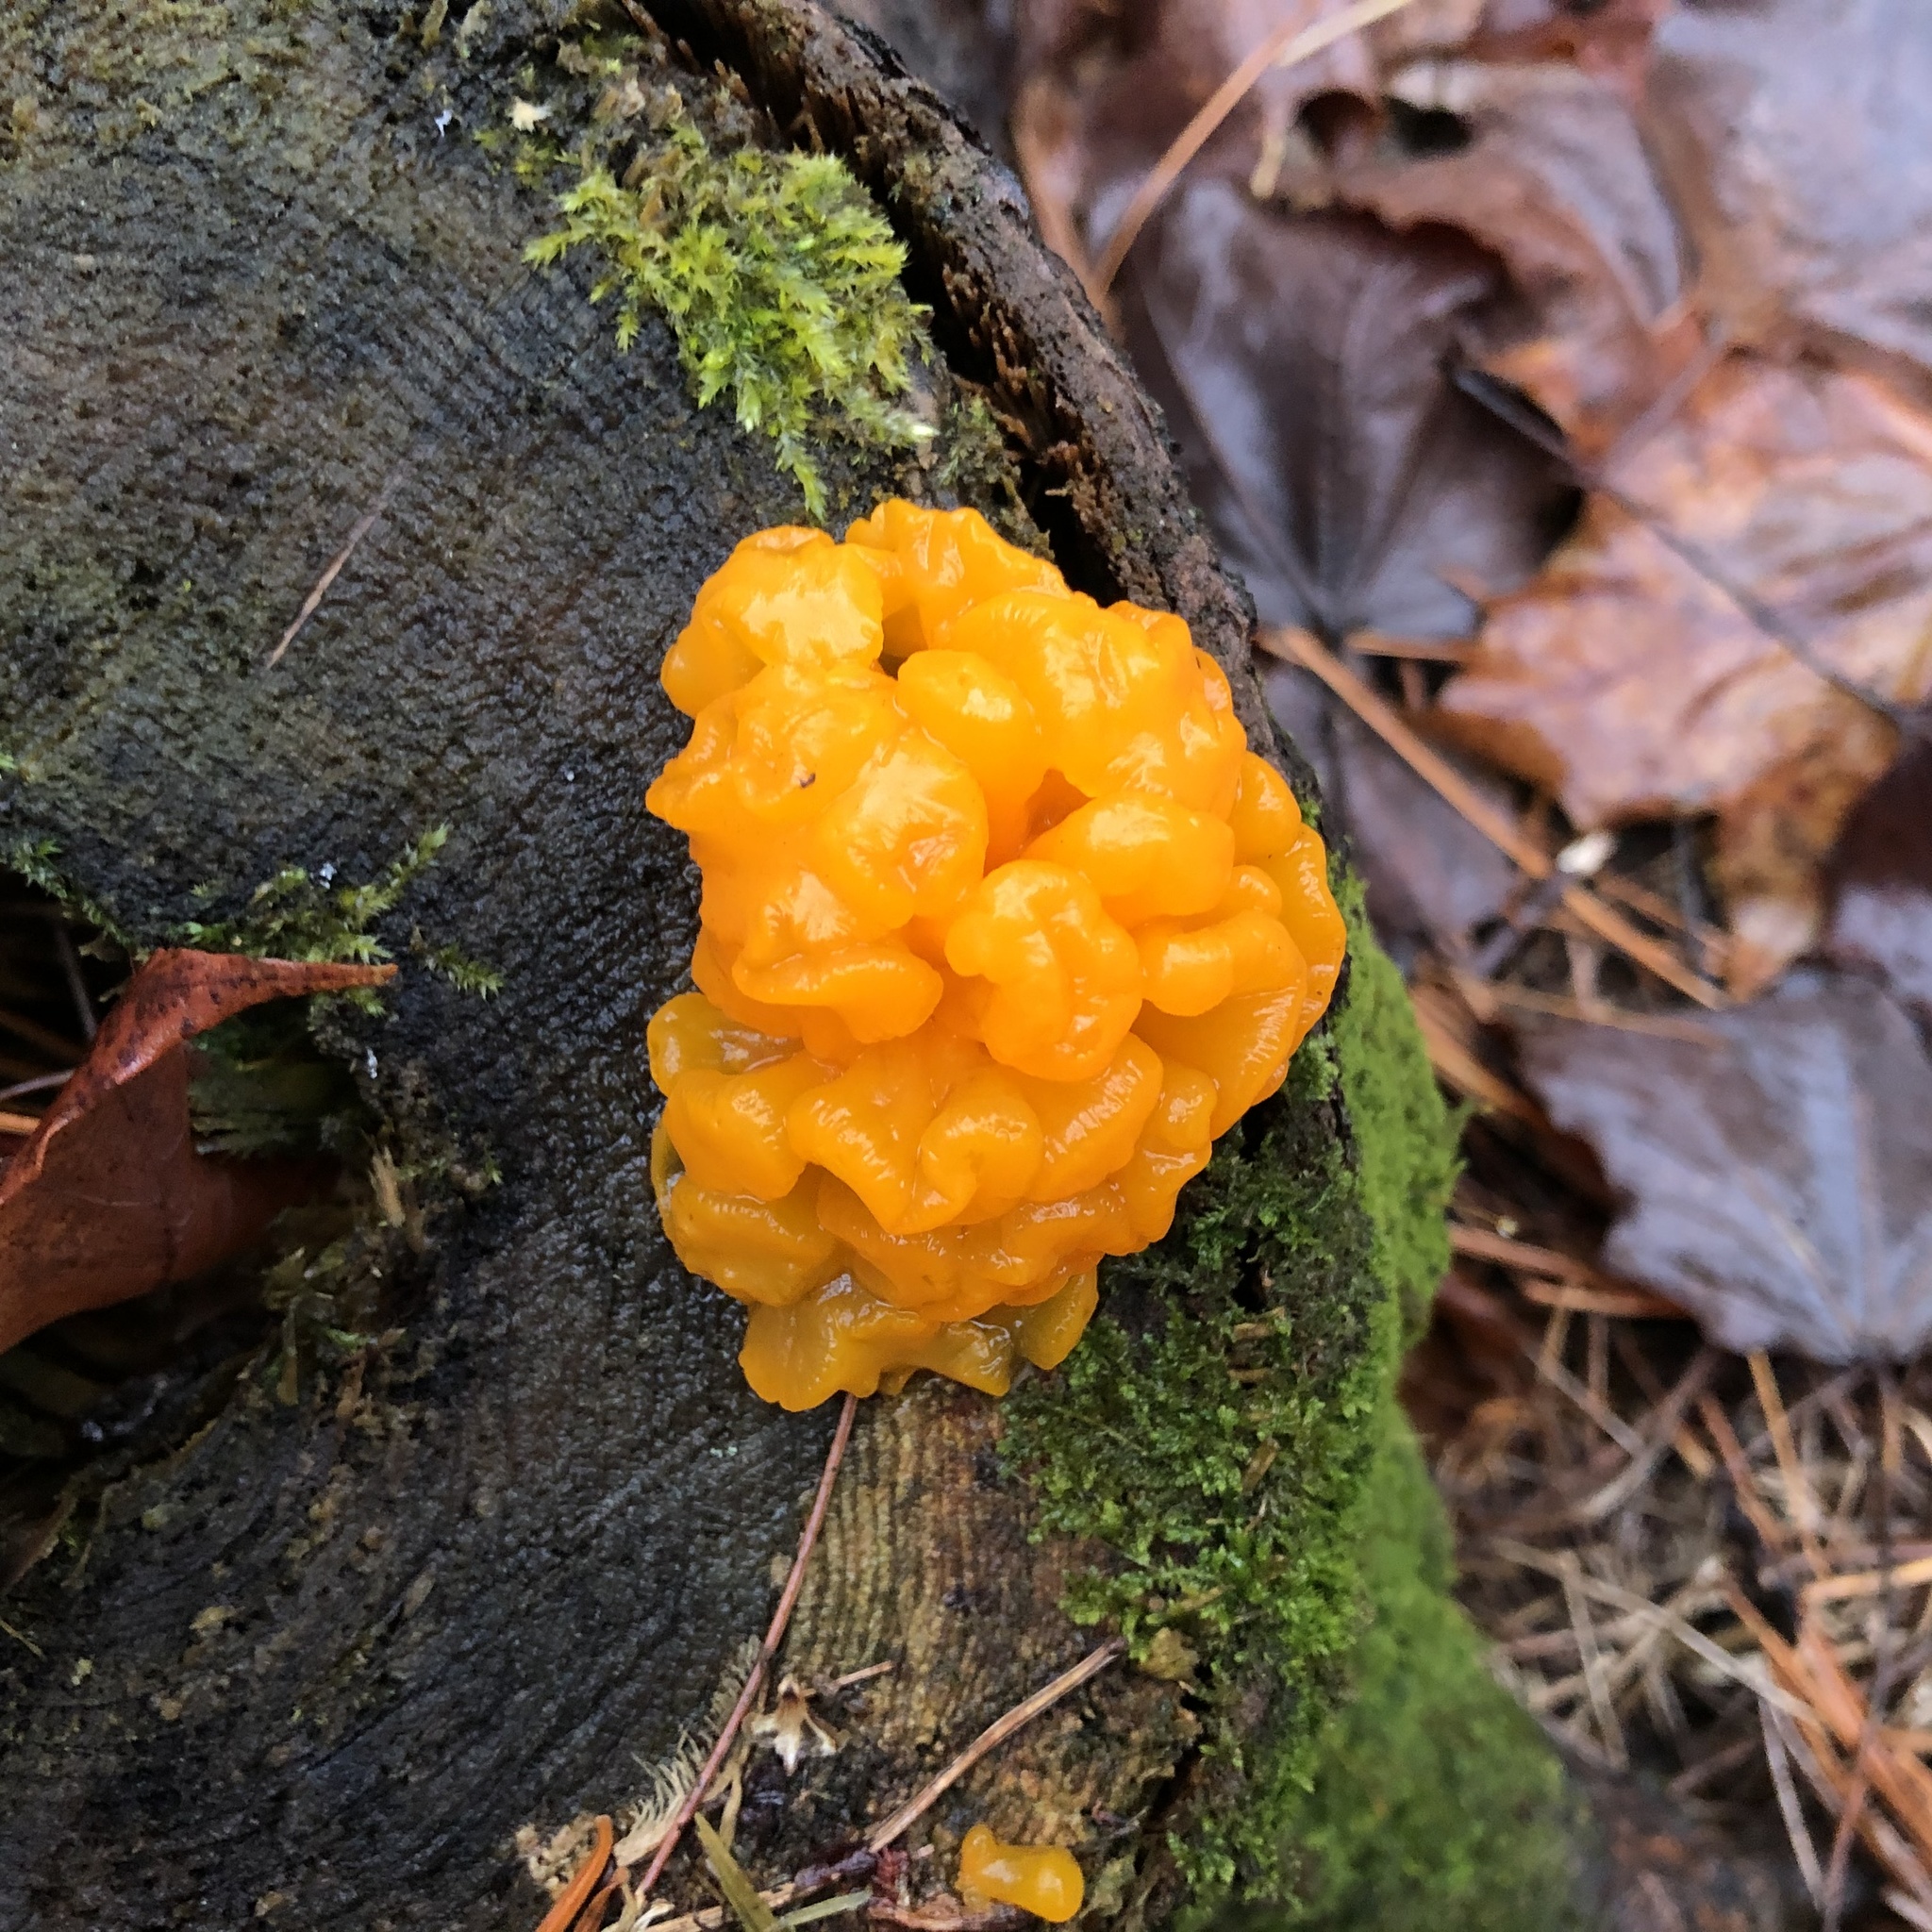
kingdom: Fungi
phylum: Basidiomycota
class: Dacrymycetes
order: Dacrymycetales
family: Dacrymycetaceae
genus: Dacrymyces
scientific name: Dacrymyces chrysospermus
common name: Orange jelly spot
